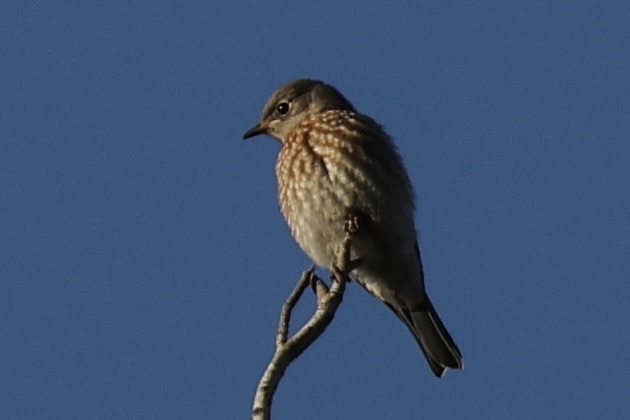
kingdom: Animalia
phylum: Chordata
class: Aves
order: Passeriformes
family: Turdidae
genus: Sialia
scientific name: Sialia mexicana
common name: Western bluebird
